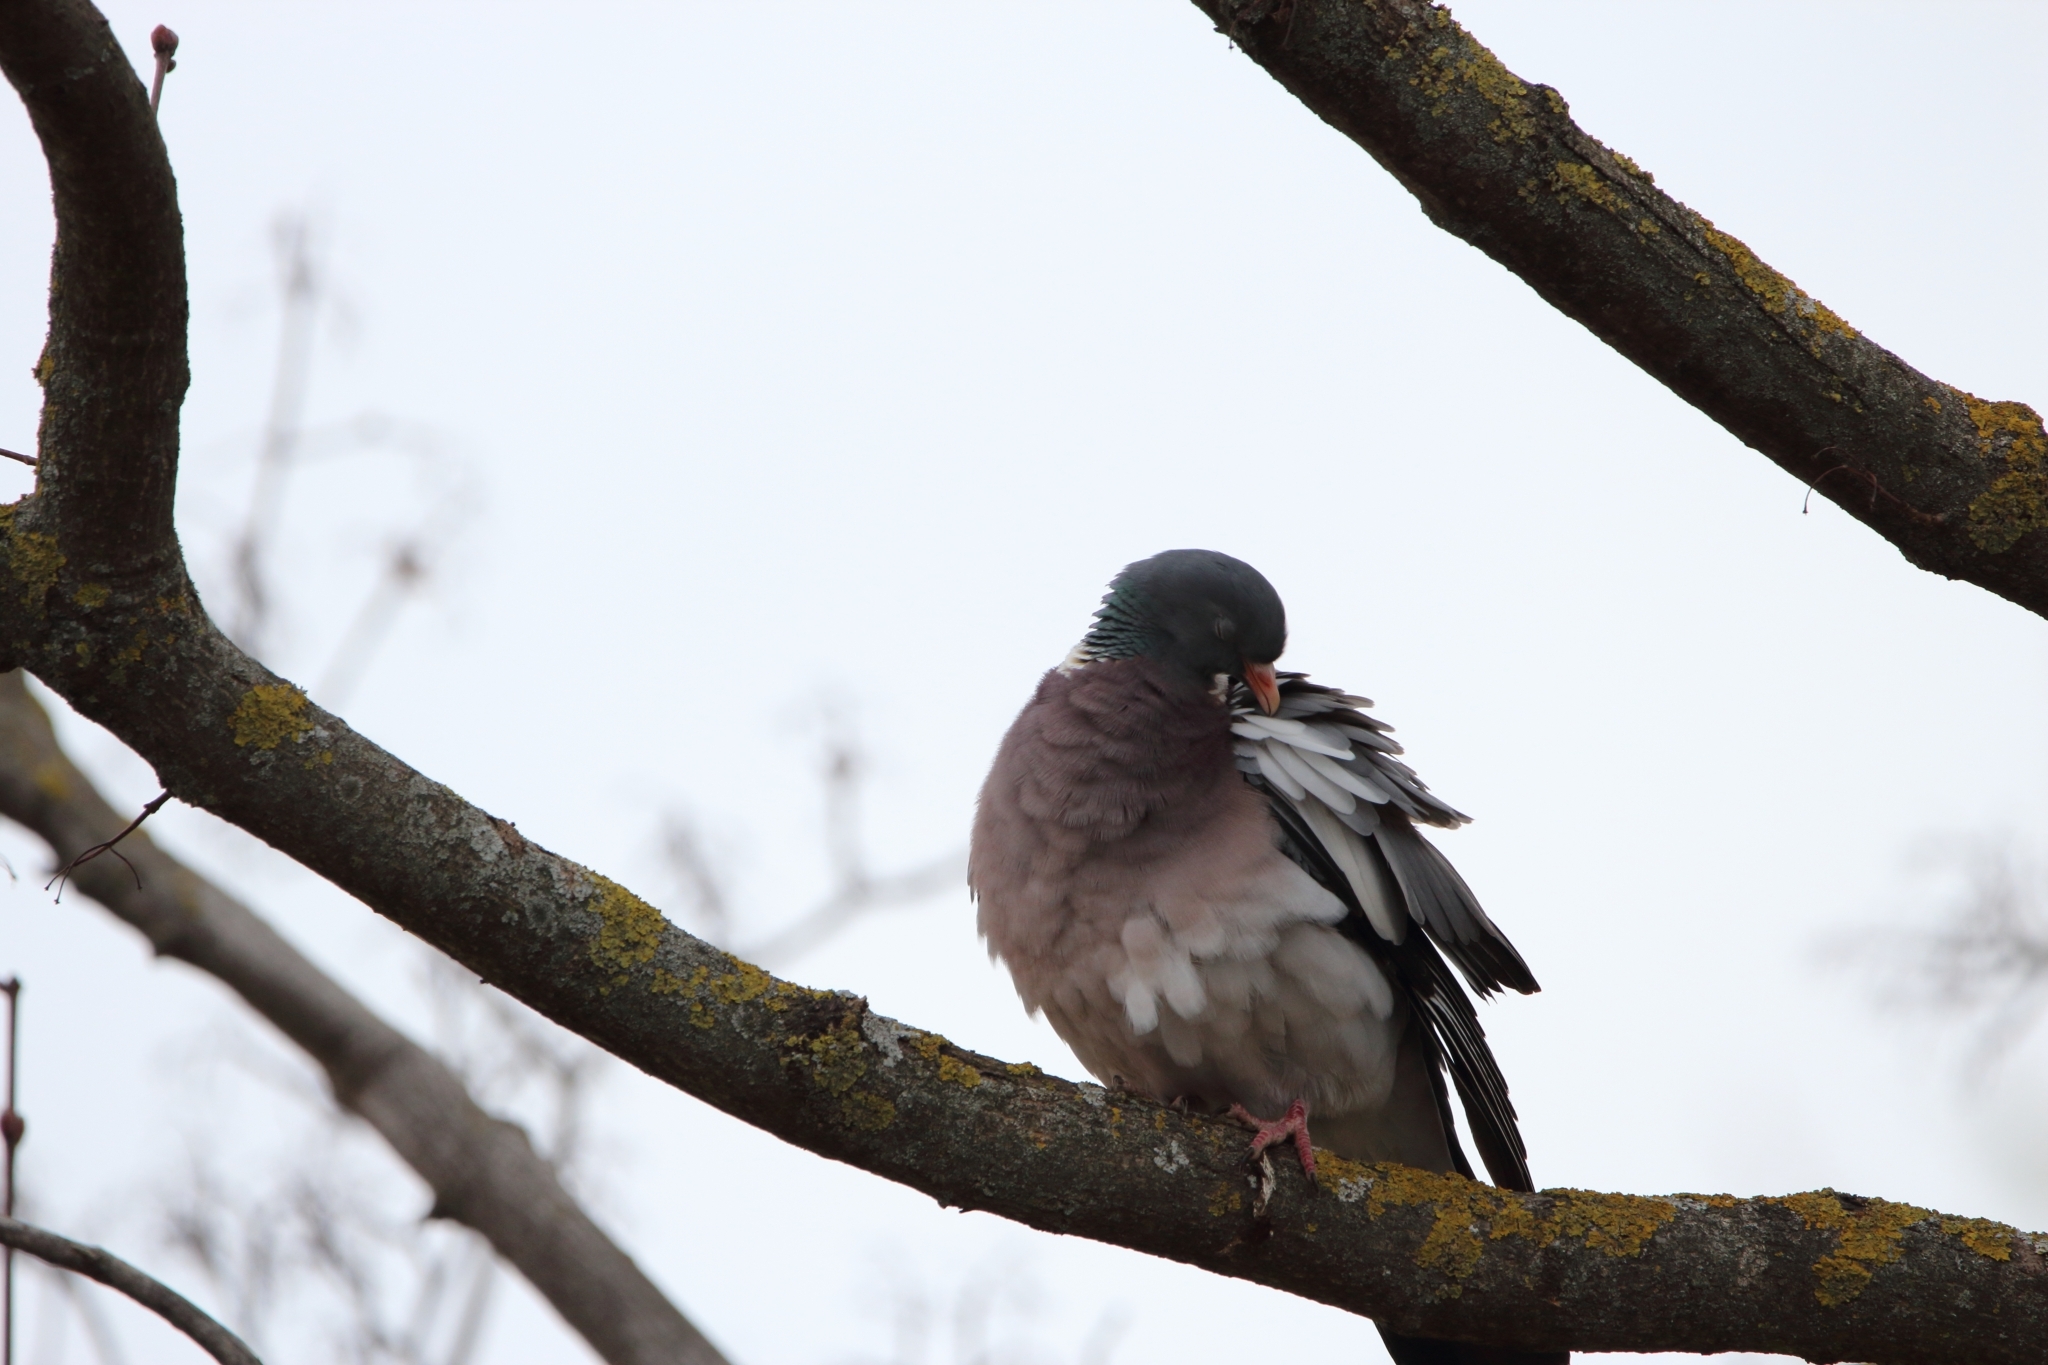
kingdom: Animalia
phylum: Chordata
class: Aves
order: Columbiformes
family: Columbidae
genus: Columba
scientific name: Columba palumbus
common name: Common wood pigeon
